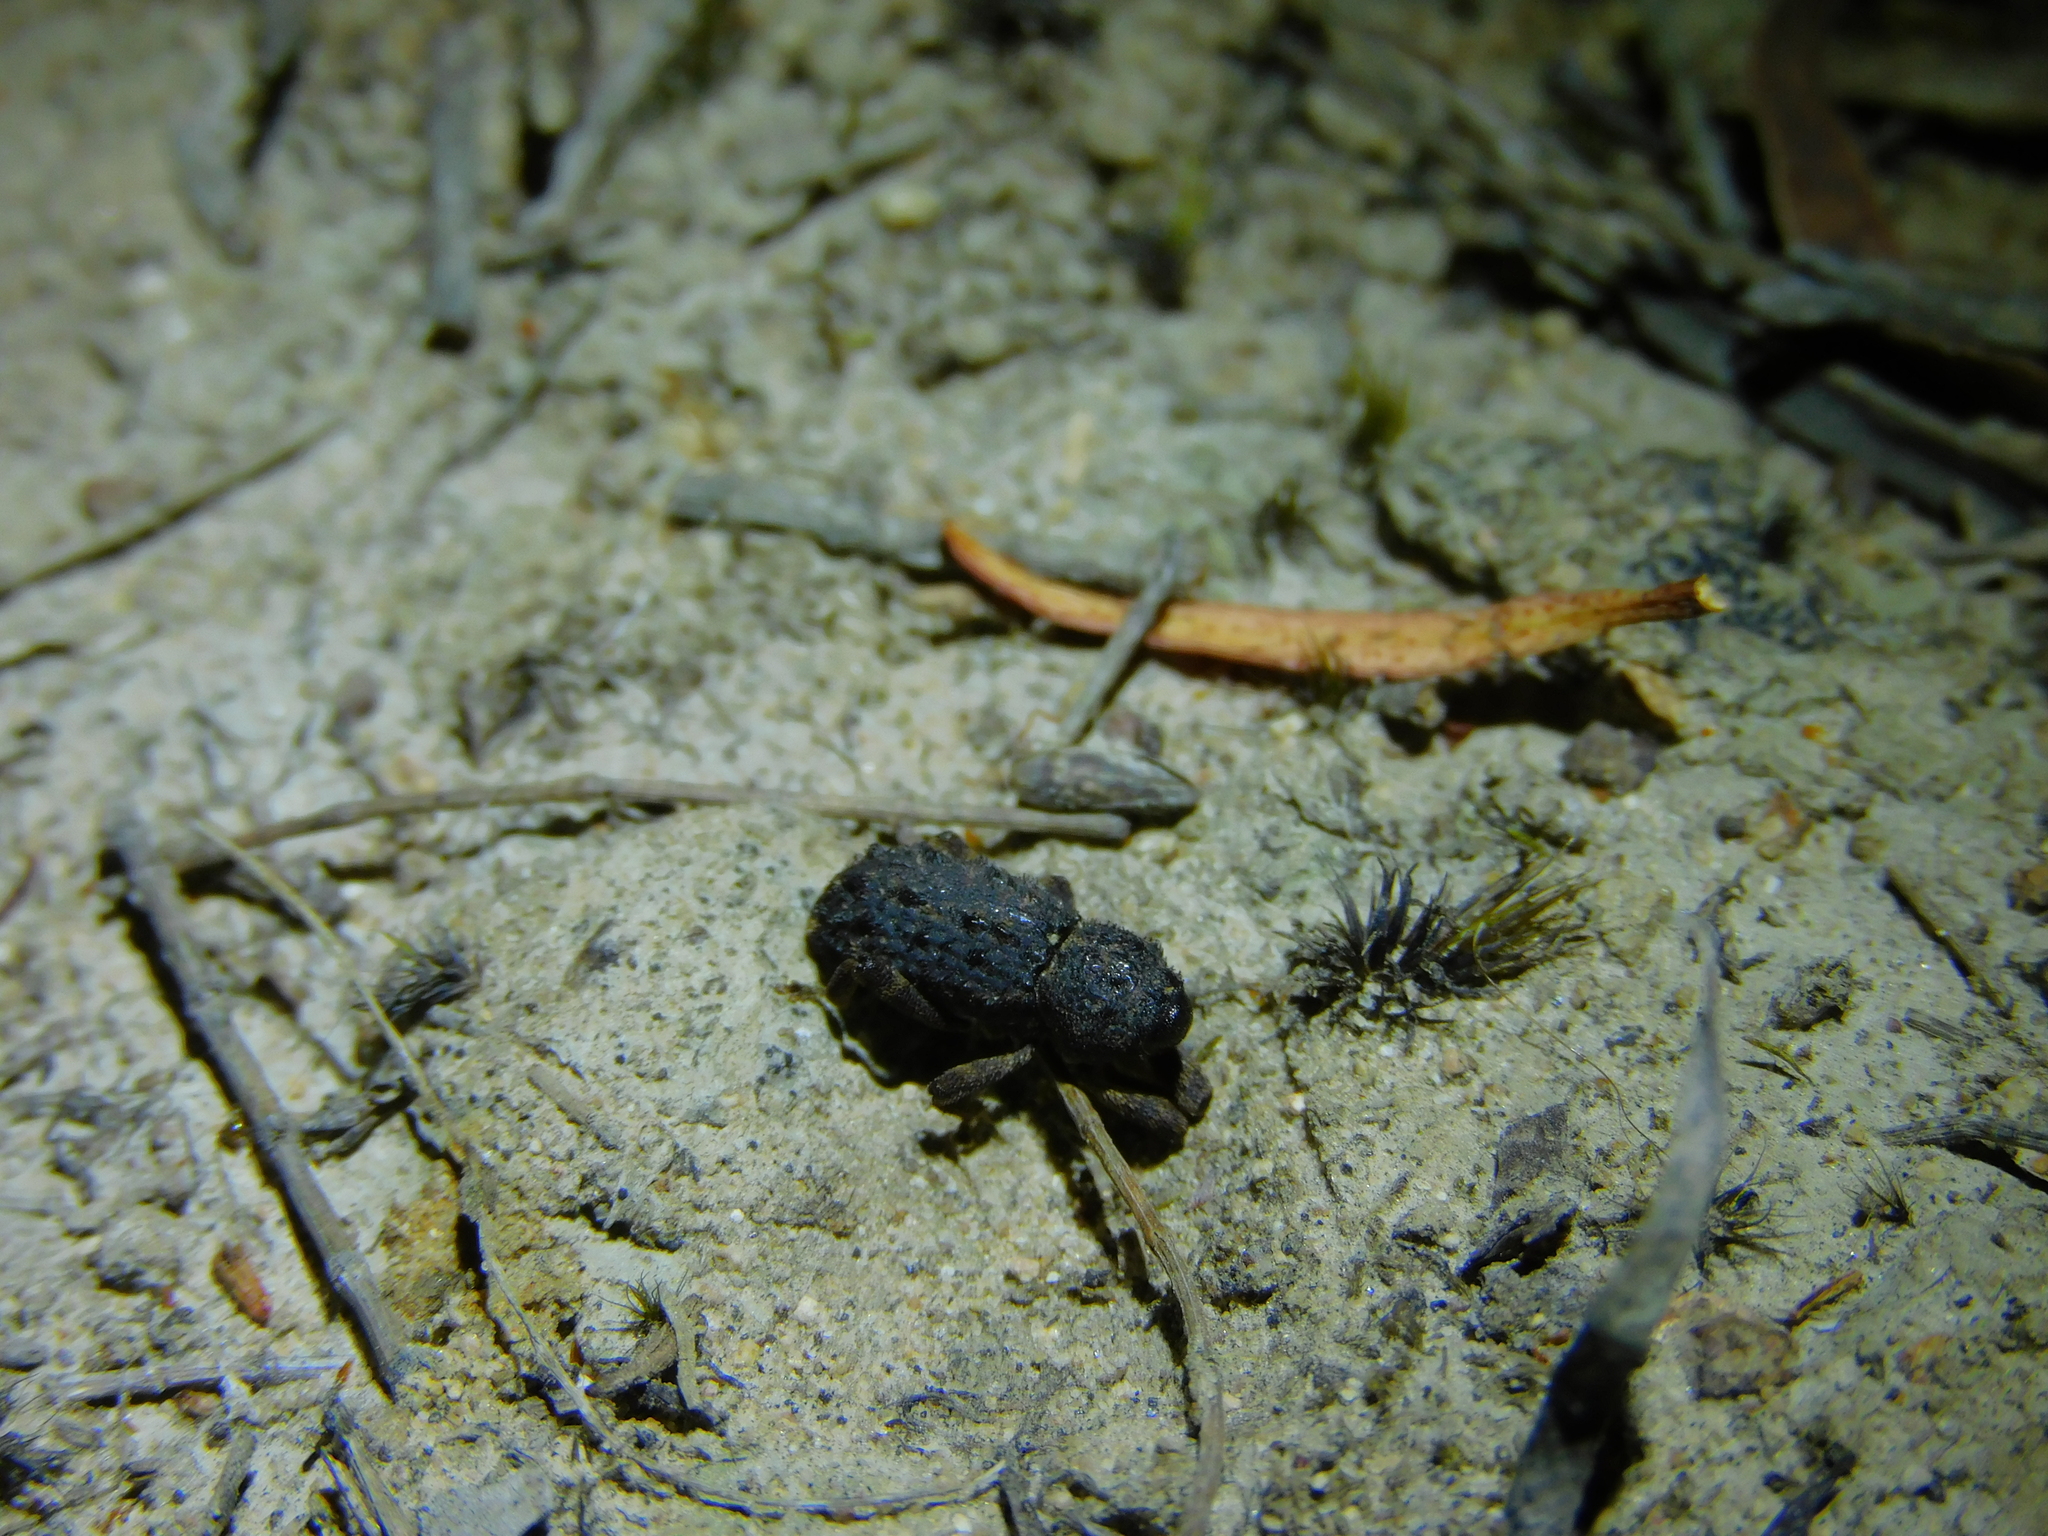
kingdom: Animalia
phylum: Arthropoda
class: Insecta
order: Coleoptera
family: Curculionidae
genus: Poropterus
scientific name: Poropterus melancholicus
